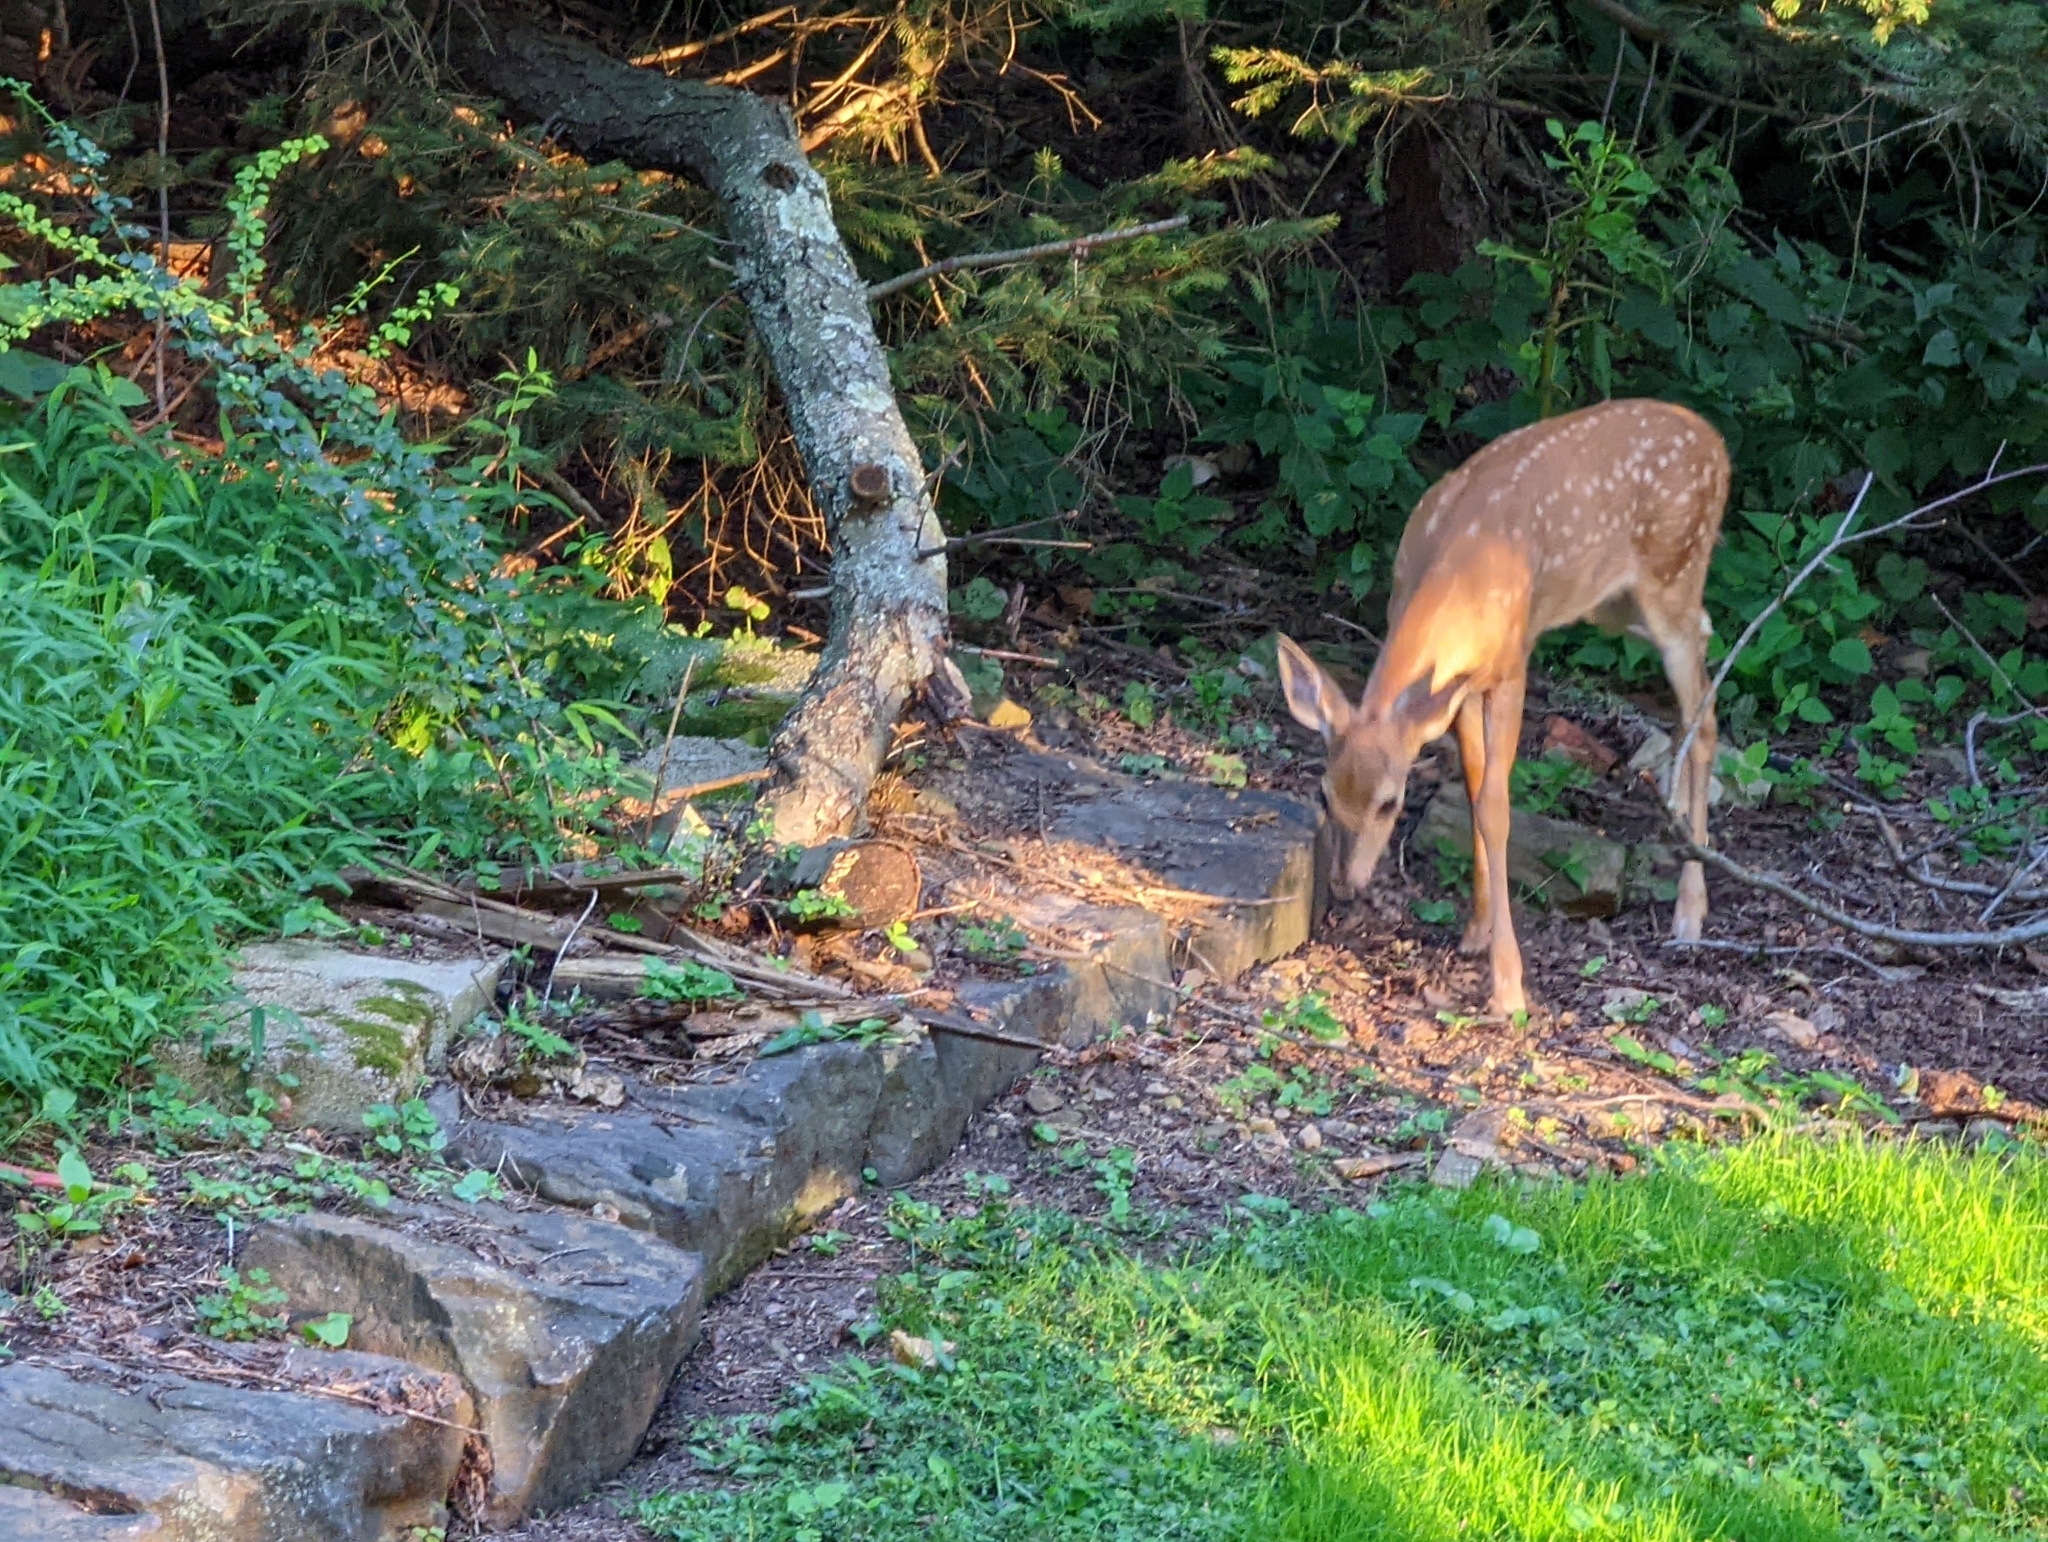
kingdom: Animalia
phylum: Chordata
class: Mammalia
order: Artiodactyla
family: Cervidae
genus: Odocoileus
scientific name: Odocoileus virginianus
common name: White-tailed deer
